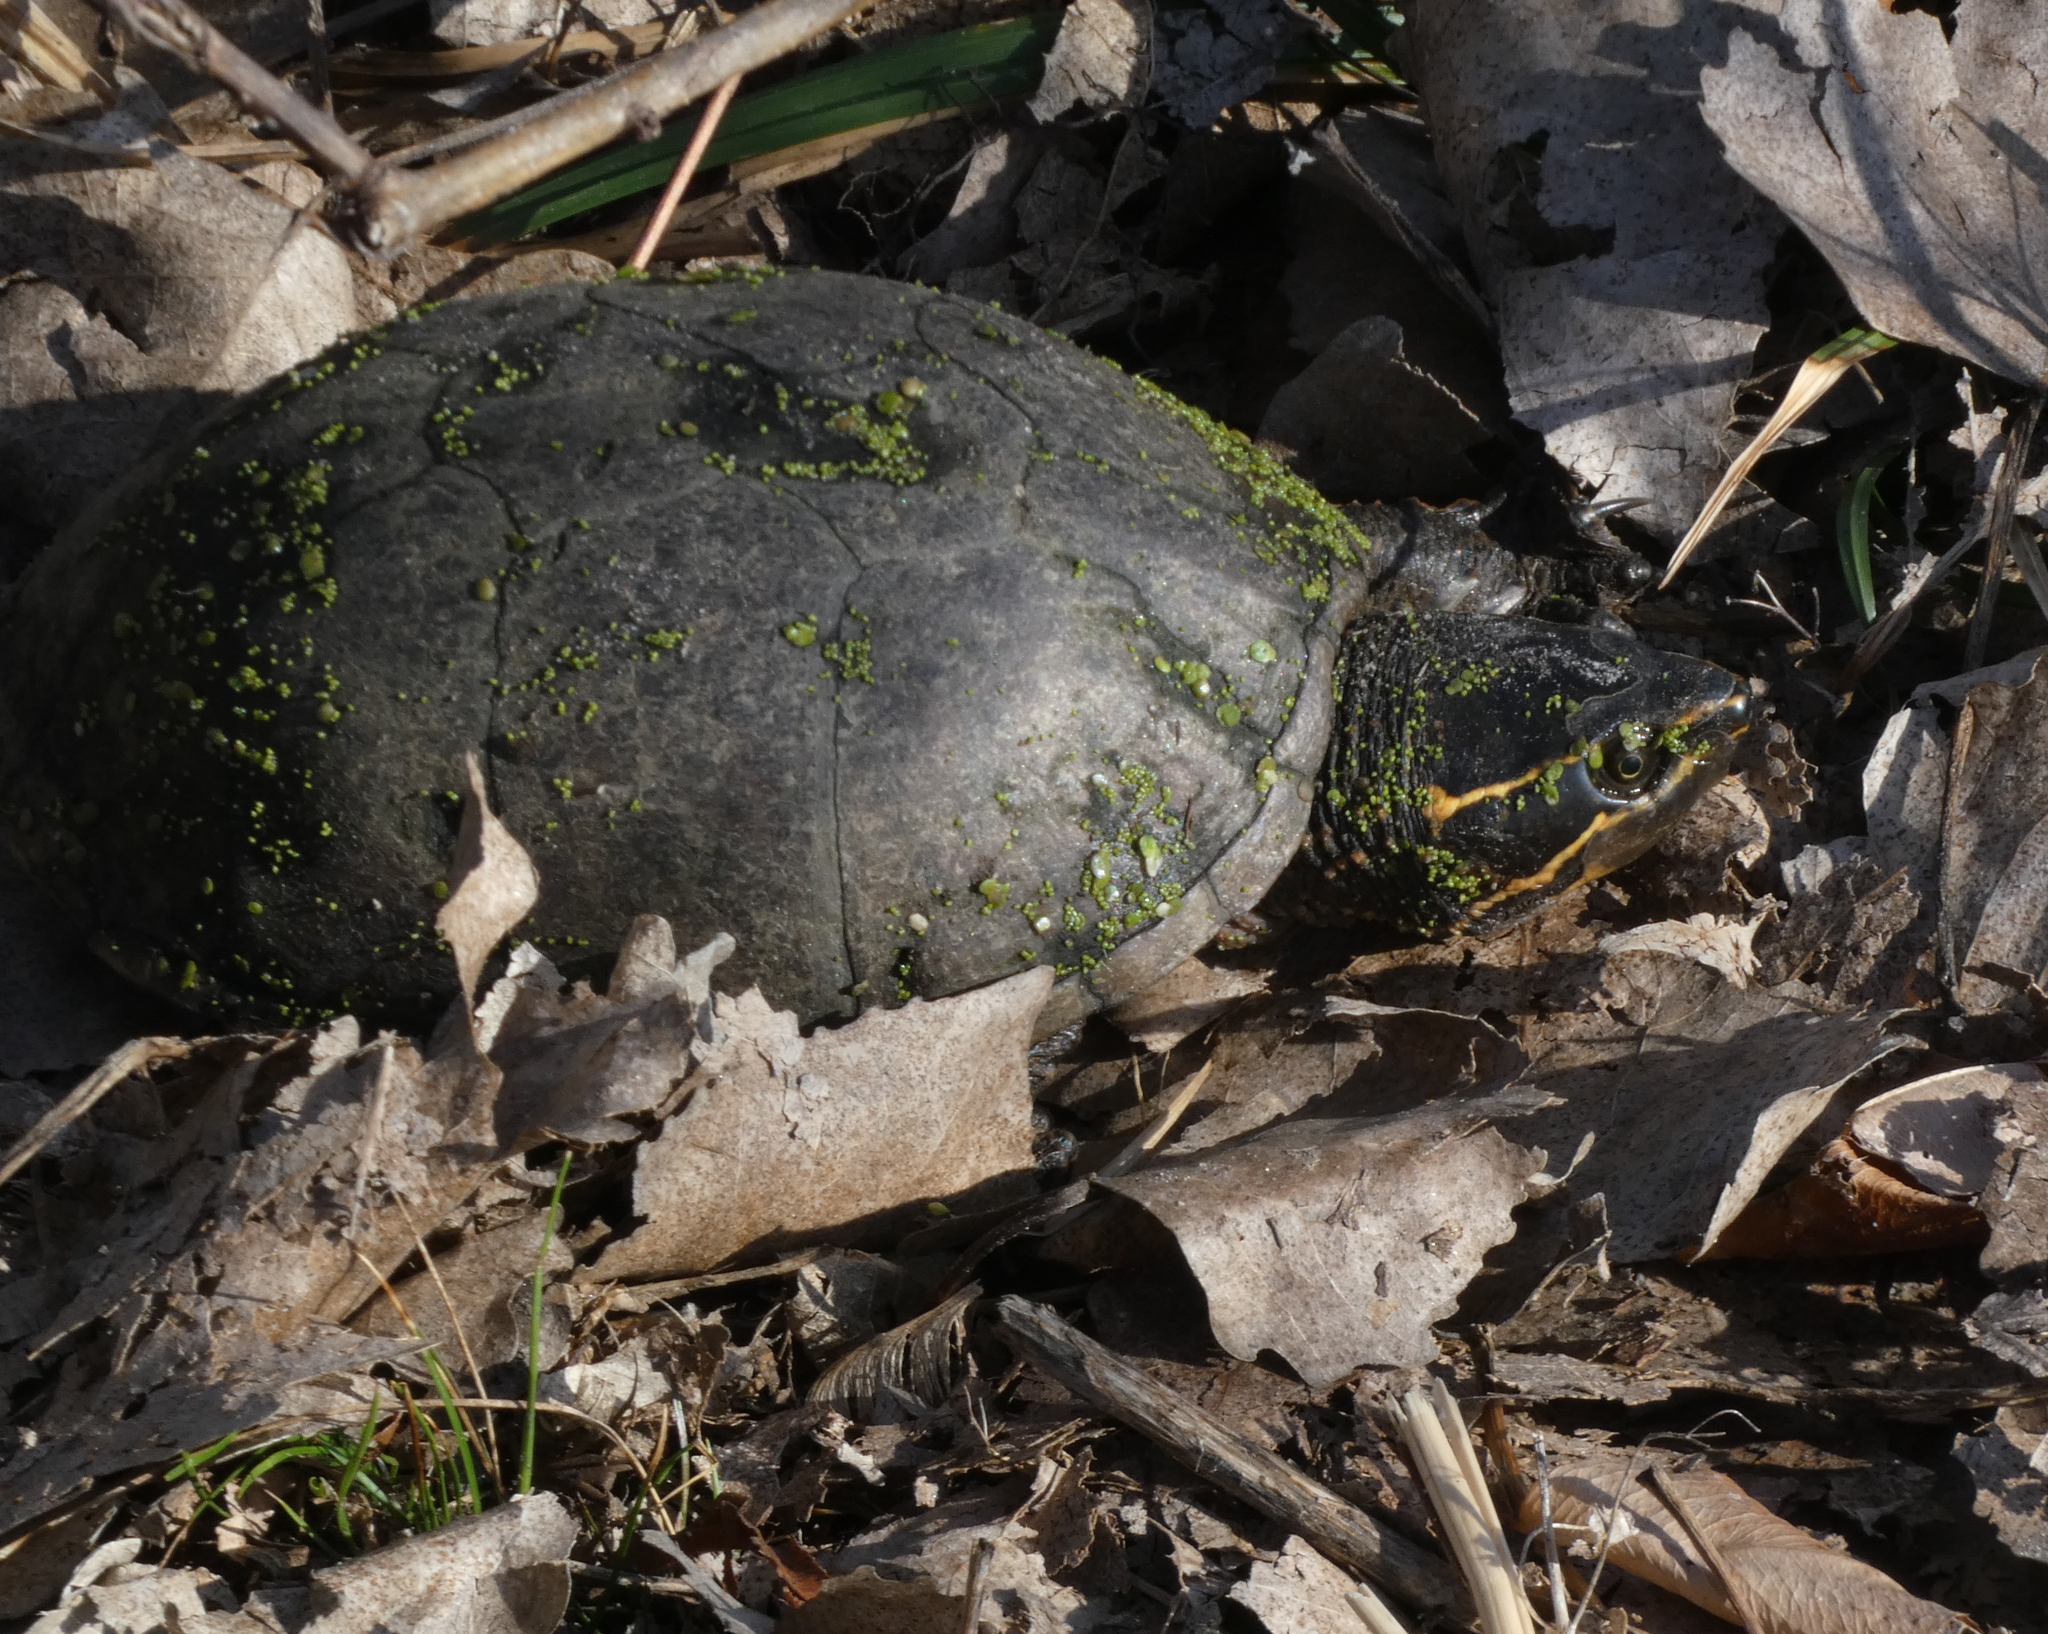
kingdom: Animalia
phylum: Chordata
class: Testudines
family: Kinosternidae
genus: Sternotherus
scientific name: Sternotherus odoratus
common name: Common musk turtle
